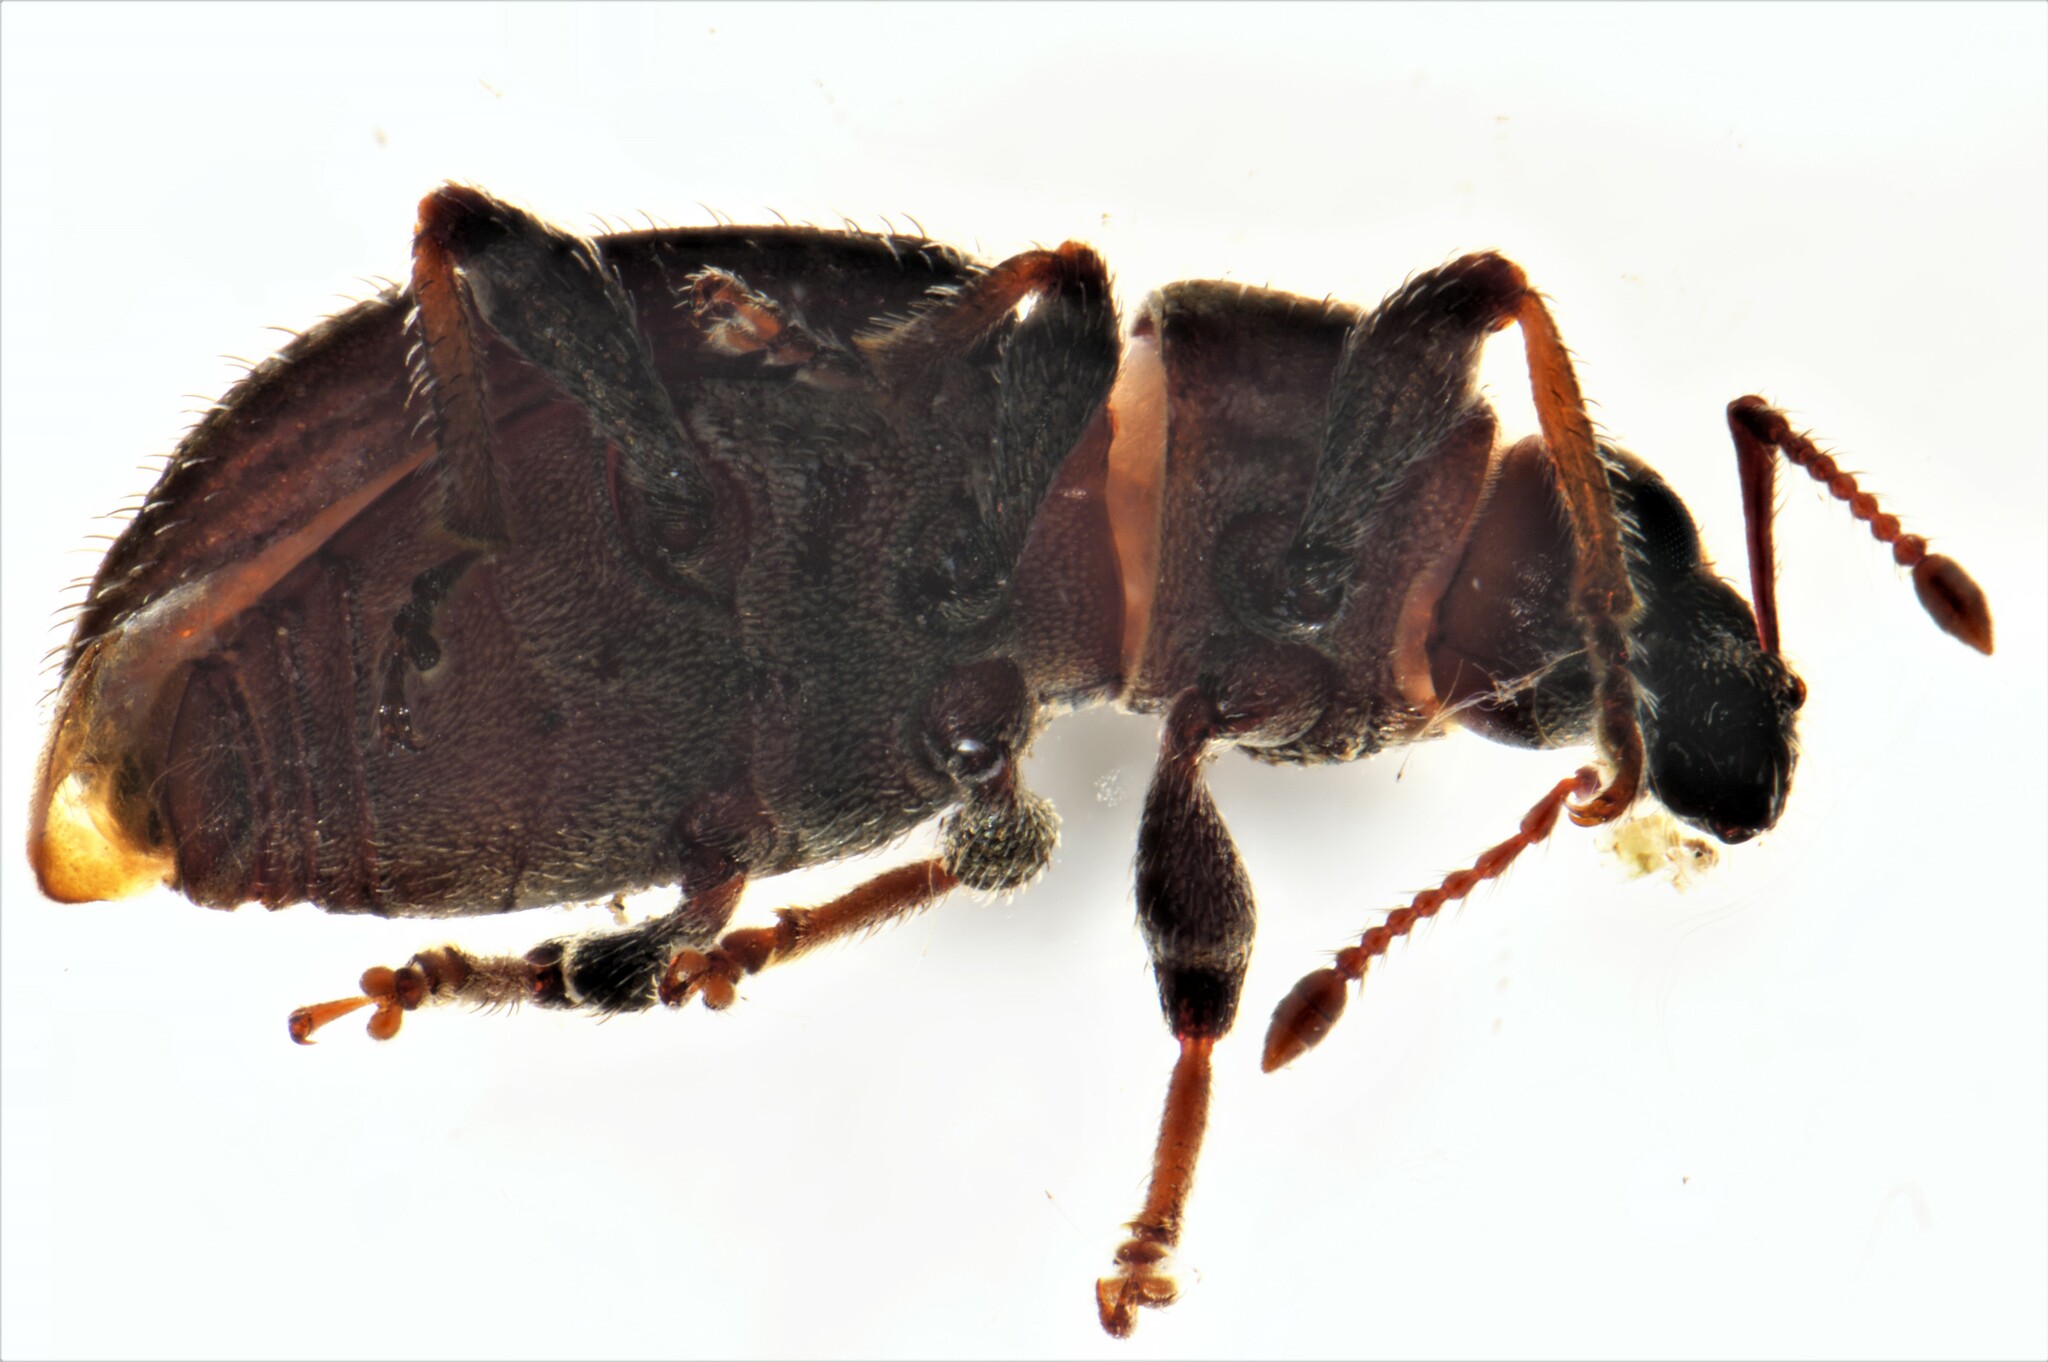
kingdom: Animalia
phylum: Arthropoda
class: Insecta
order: Coleoptera
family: Curculionidae
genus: Chalepistes
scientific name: Chalepistes spermophilus
